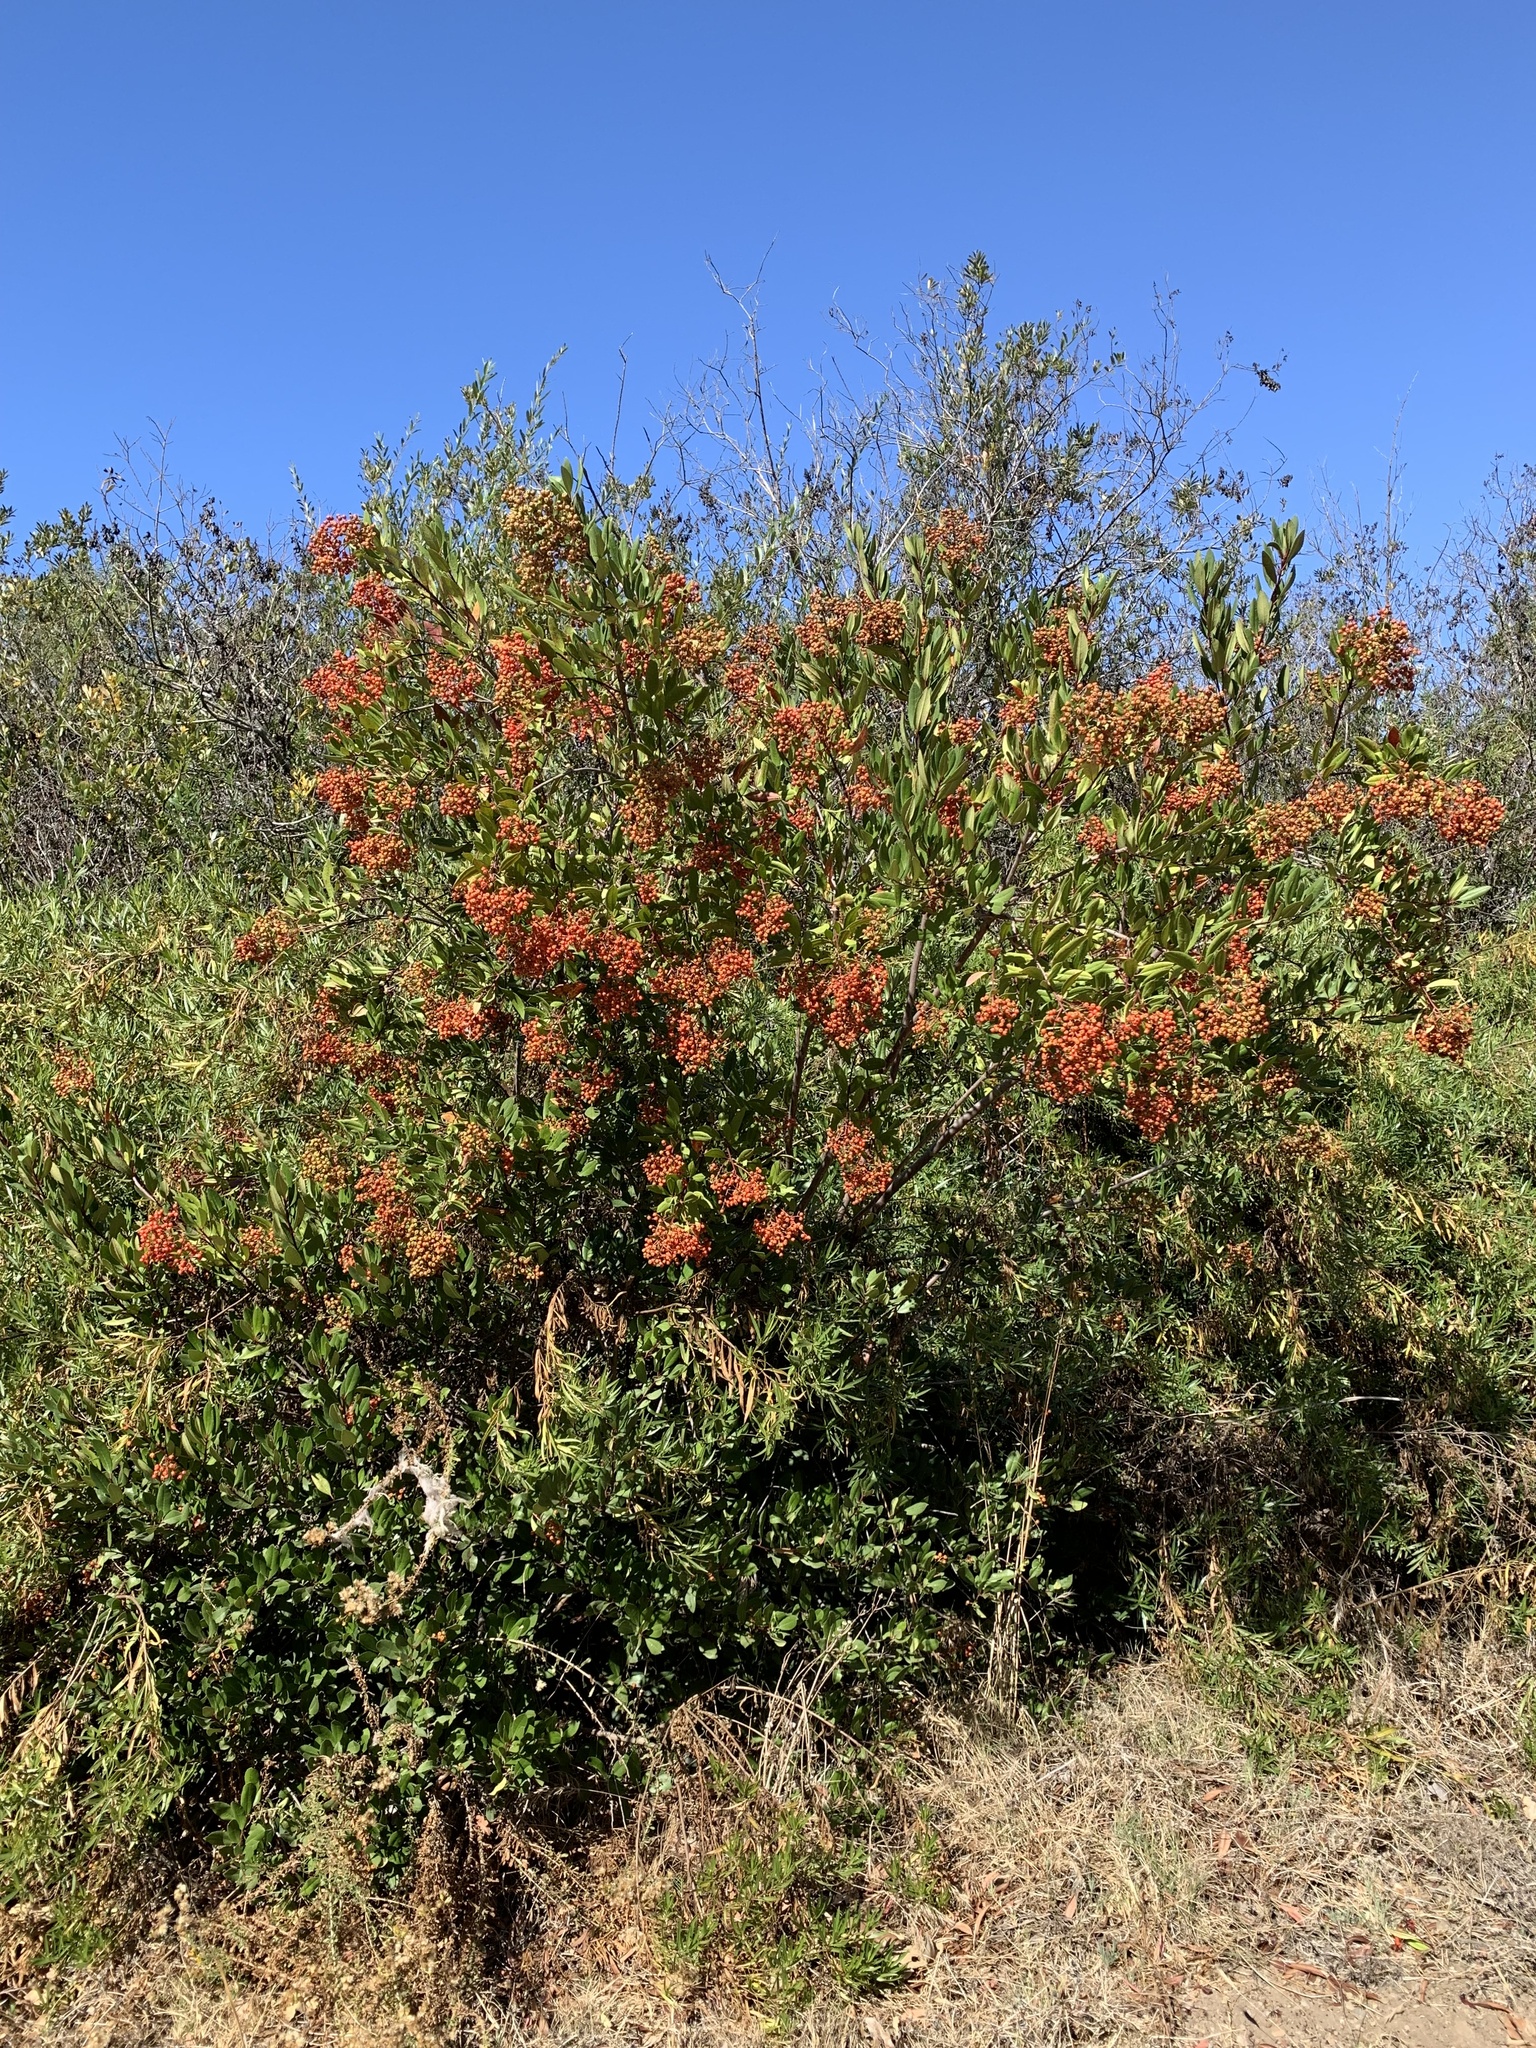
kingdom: Plantae
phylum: Tracheophyta
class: Magnoliopsida
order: Rosales
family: Rosaceae
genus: Heteromeles
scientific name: Heteromeles arbutifolia
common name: California-holly
